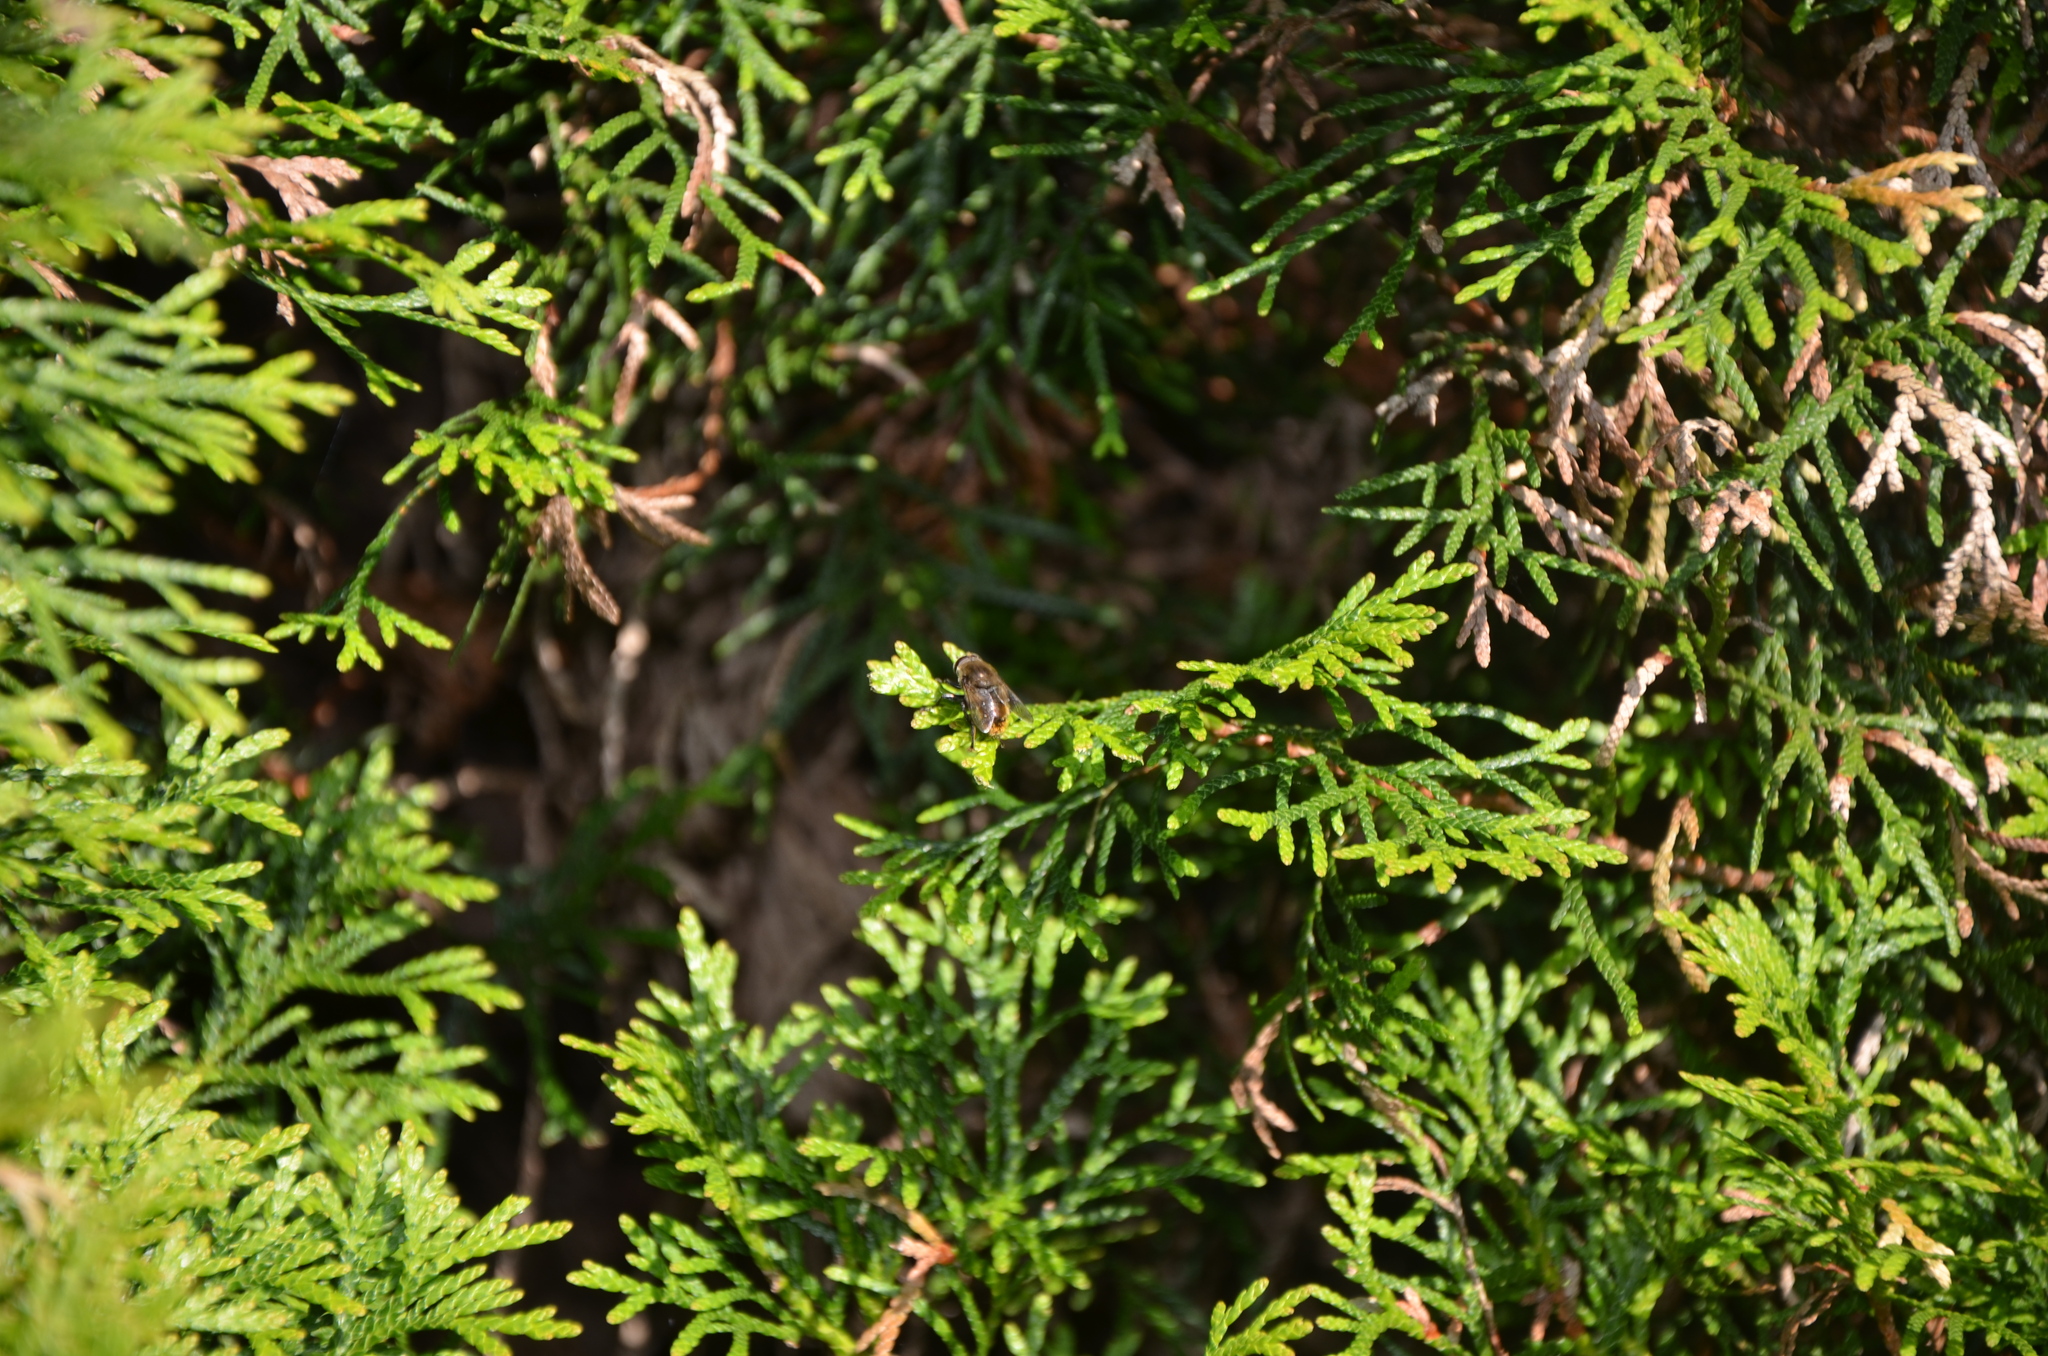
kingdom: Animalia
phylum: Arthropoda
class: Insecta
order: Diptera
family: Syrphidae
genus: Merodon
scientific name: Merodon equestris
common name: Greater bulb-fly
